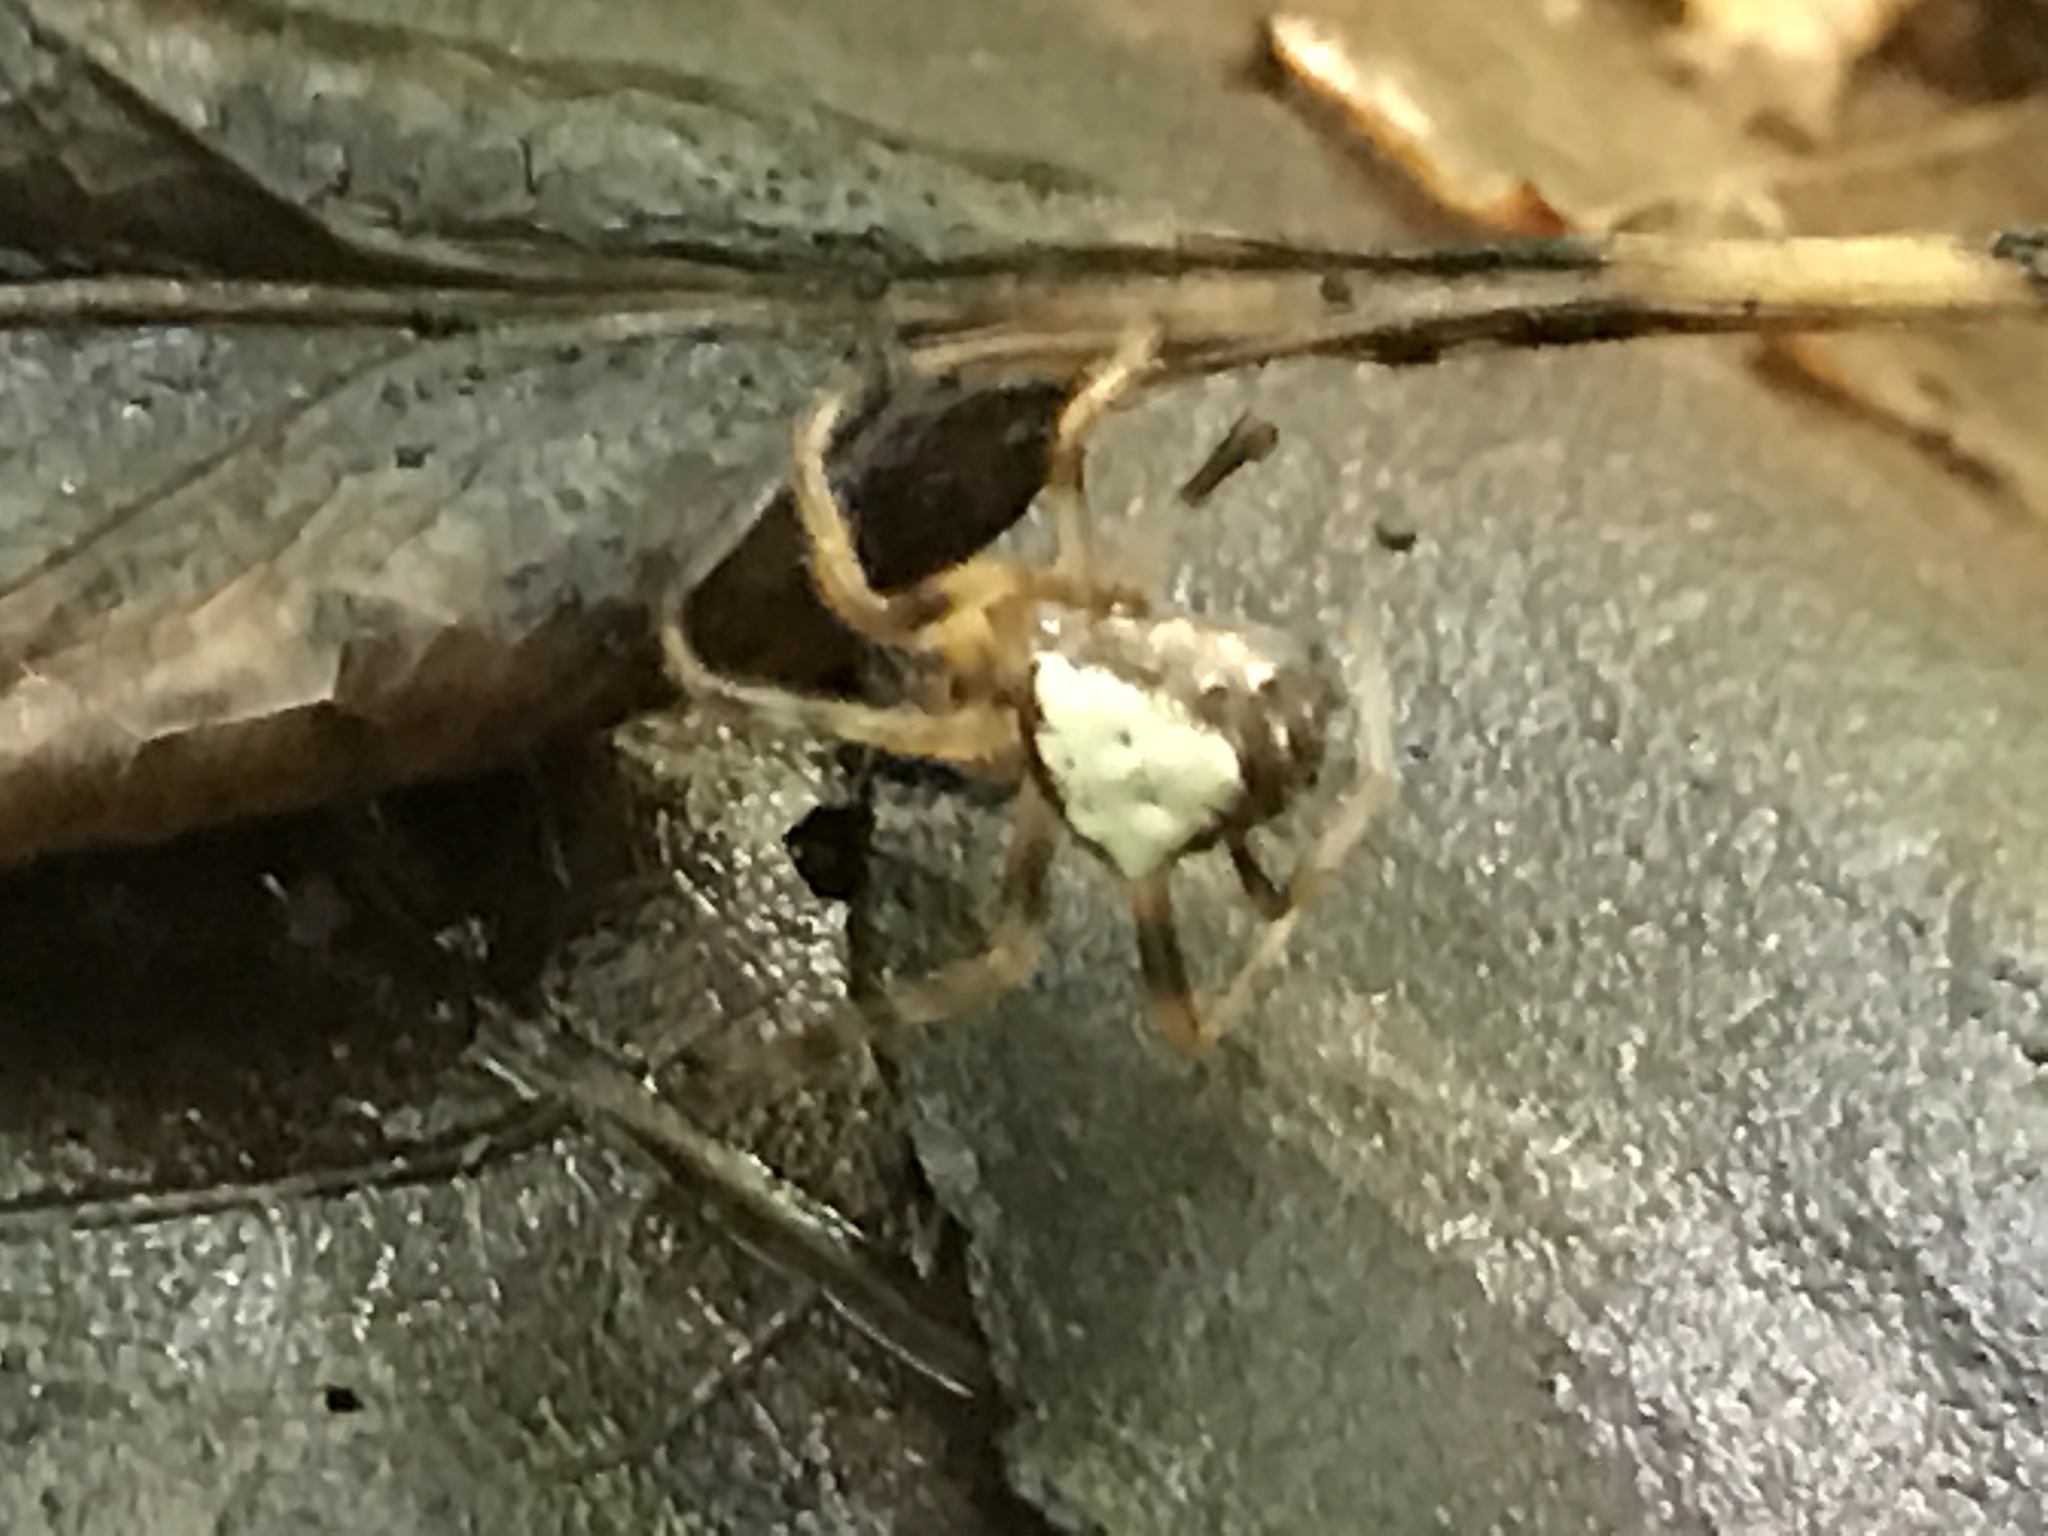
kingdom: Animalia
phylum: Arthropoda
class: Arachnida
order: Araneae
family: Araneidae
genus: Verrucosa
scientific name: Verrucosa arenata
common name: Orb weavers
